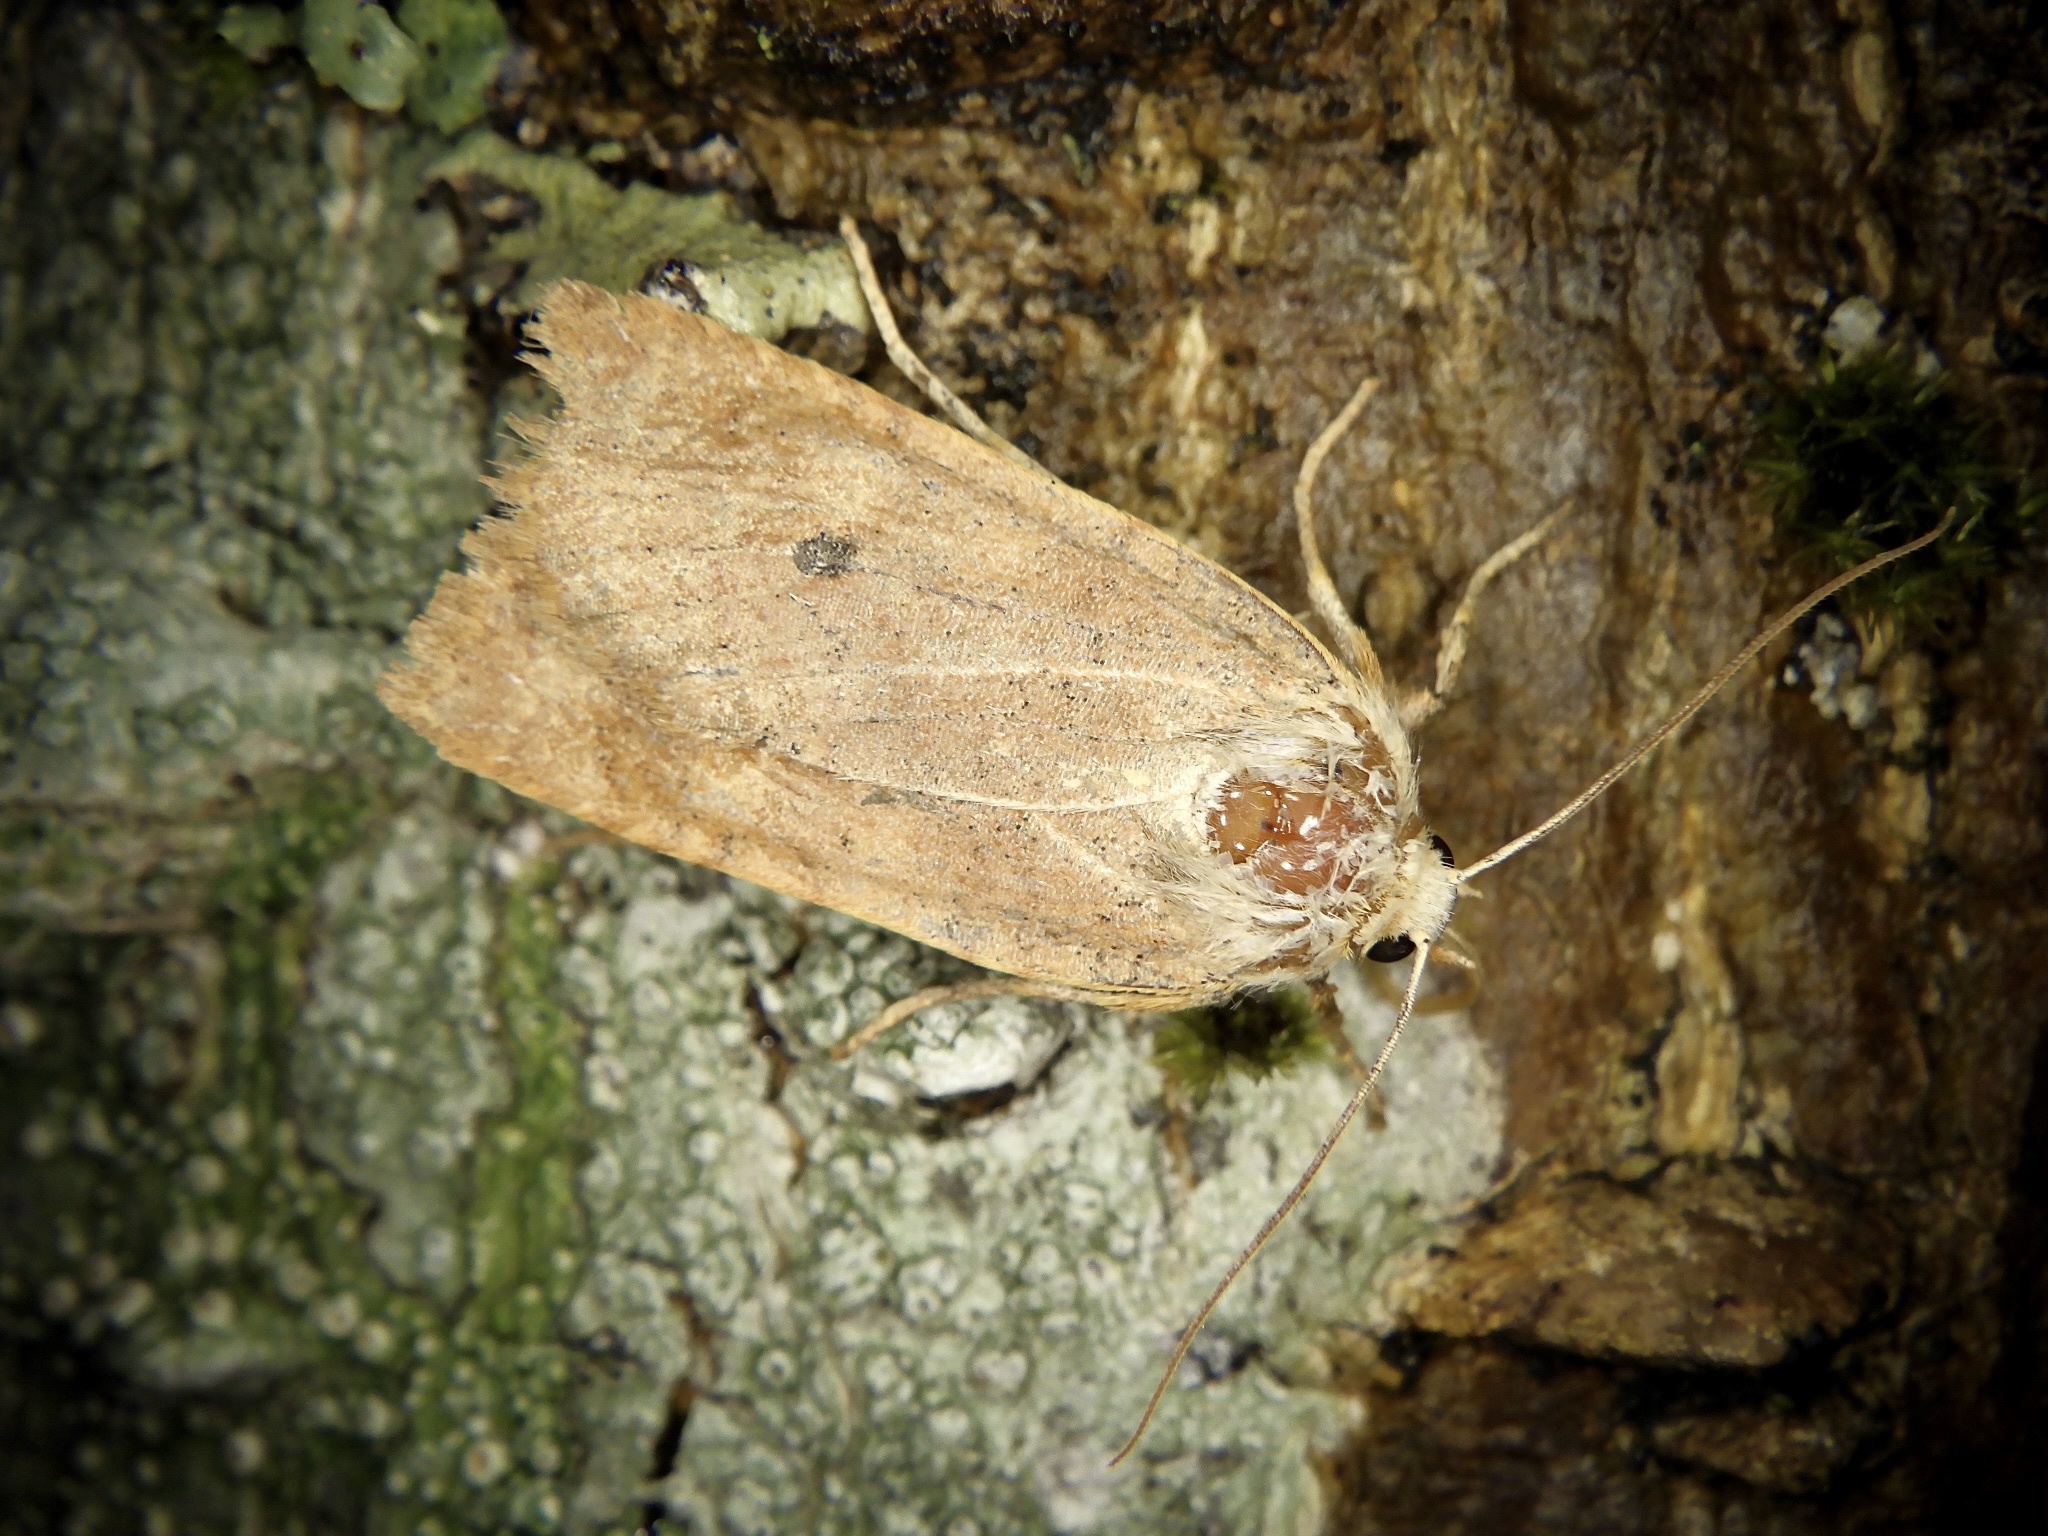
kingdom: Animalia
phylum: Arthropoda
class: Insecta
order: Lepidoptera
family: Noctuidae
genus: Conistra
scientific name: Conistra albipuncta
